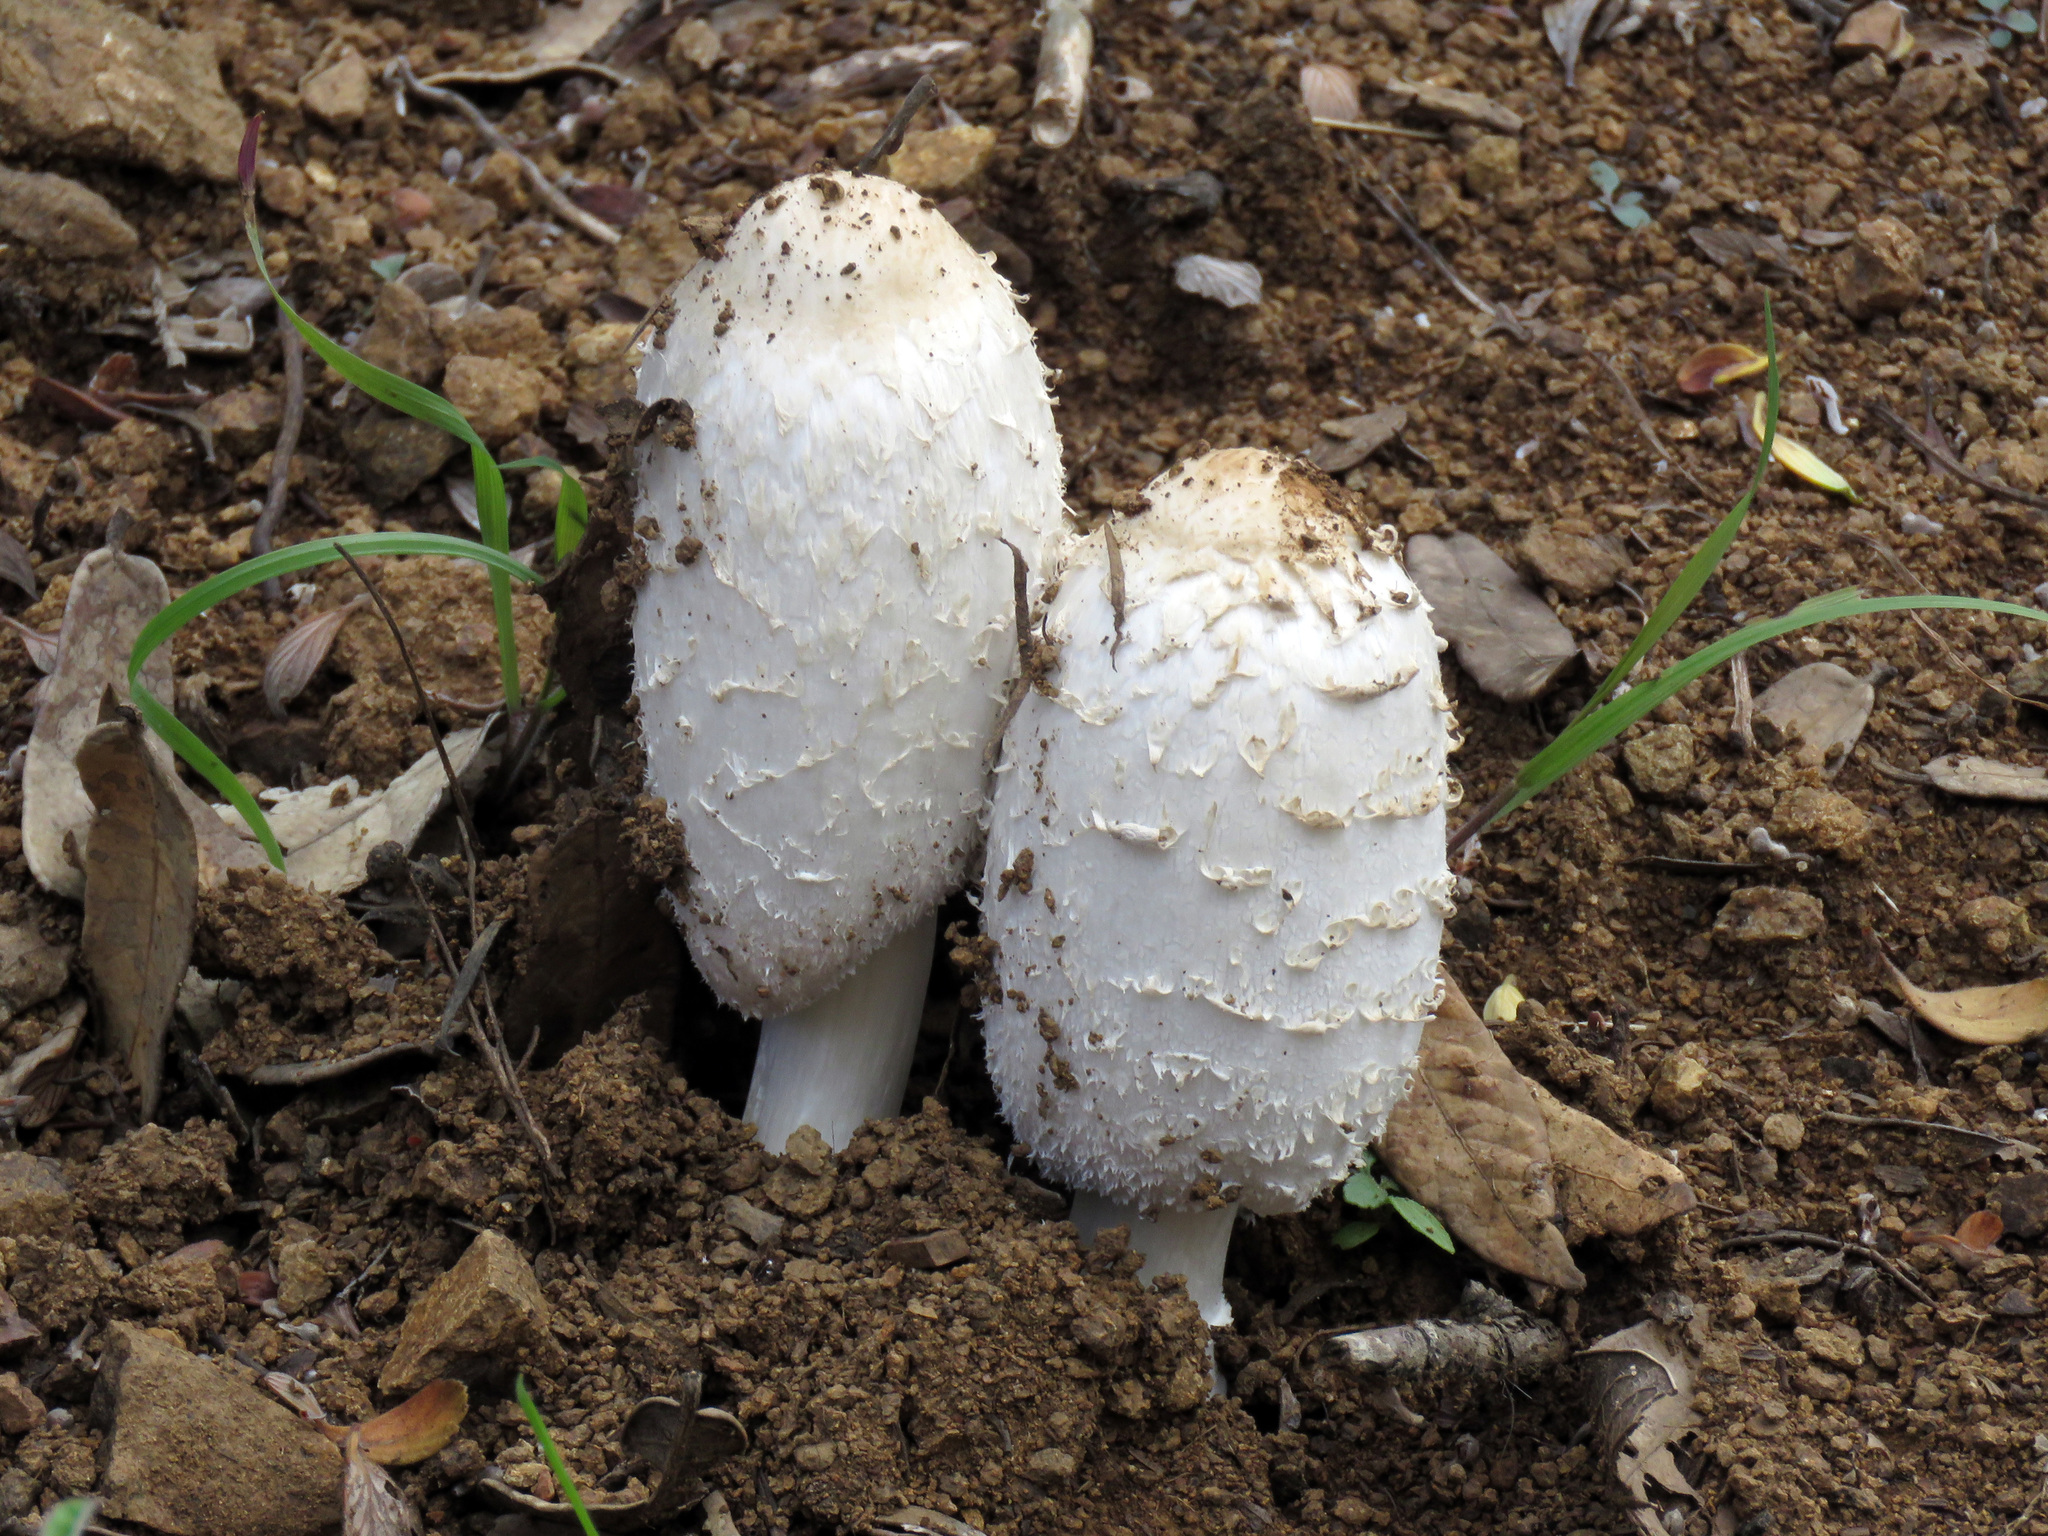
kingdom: Fungi
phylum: Basidiomycota
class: Agaricomycetes
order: Agaricales
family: Agaricaceae
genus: Coprinus
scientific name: Coprinus comatus
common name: Lawyer's wig
